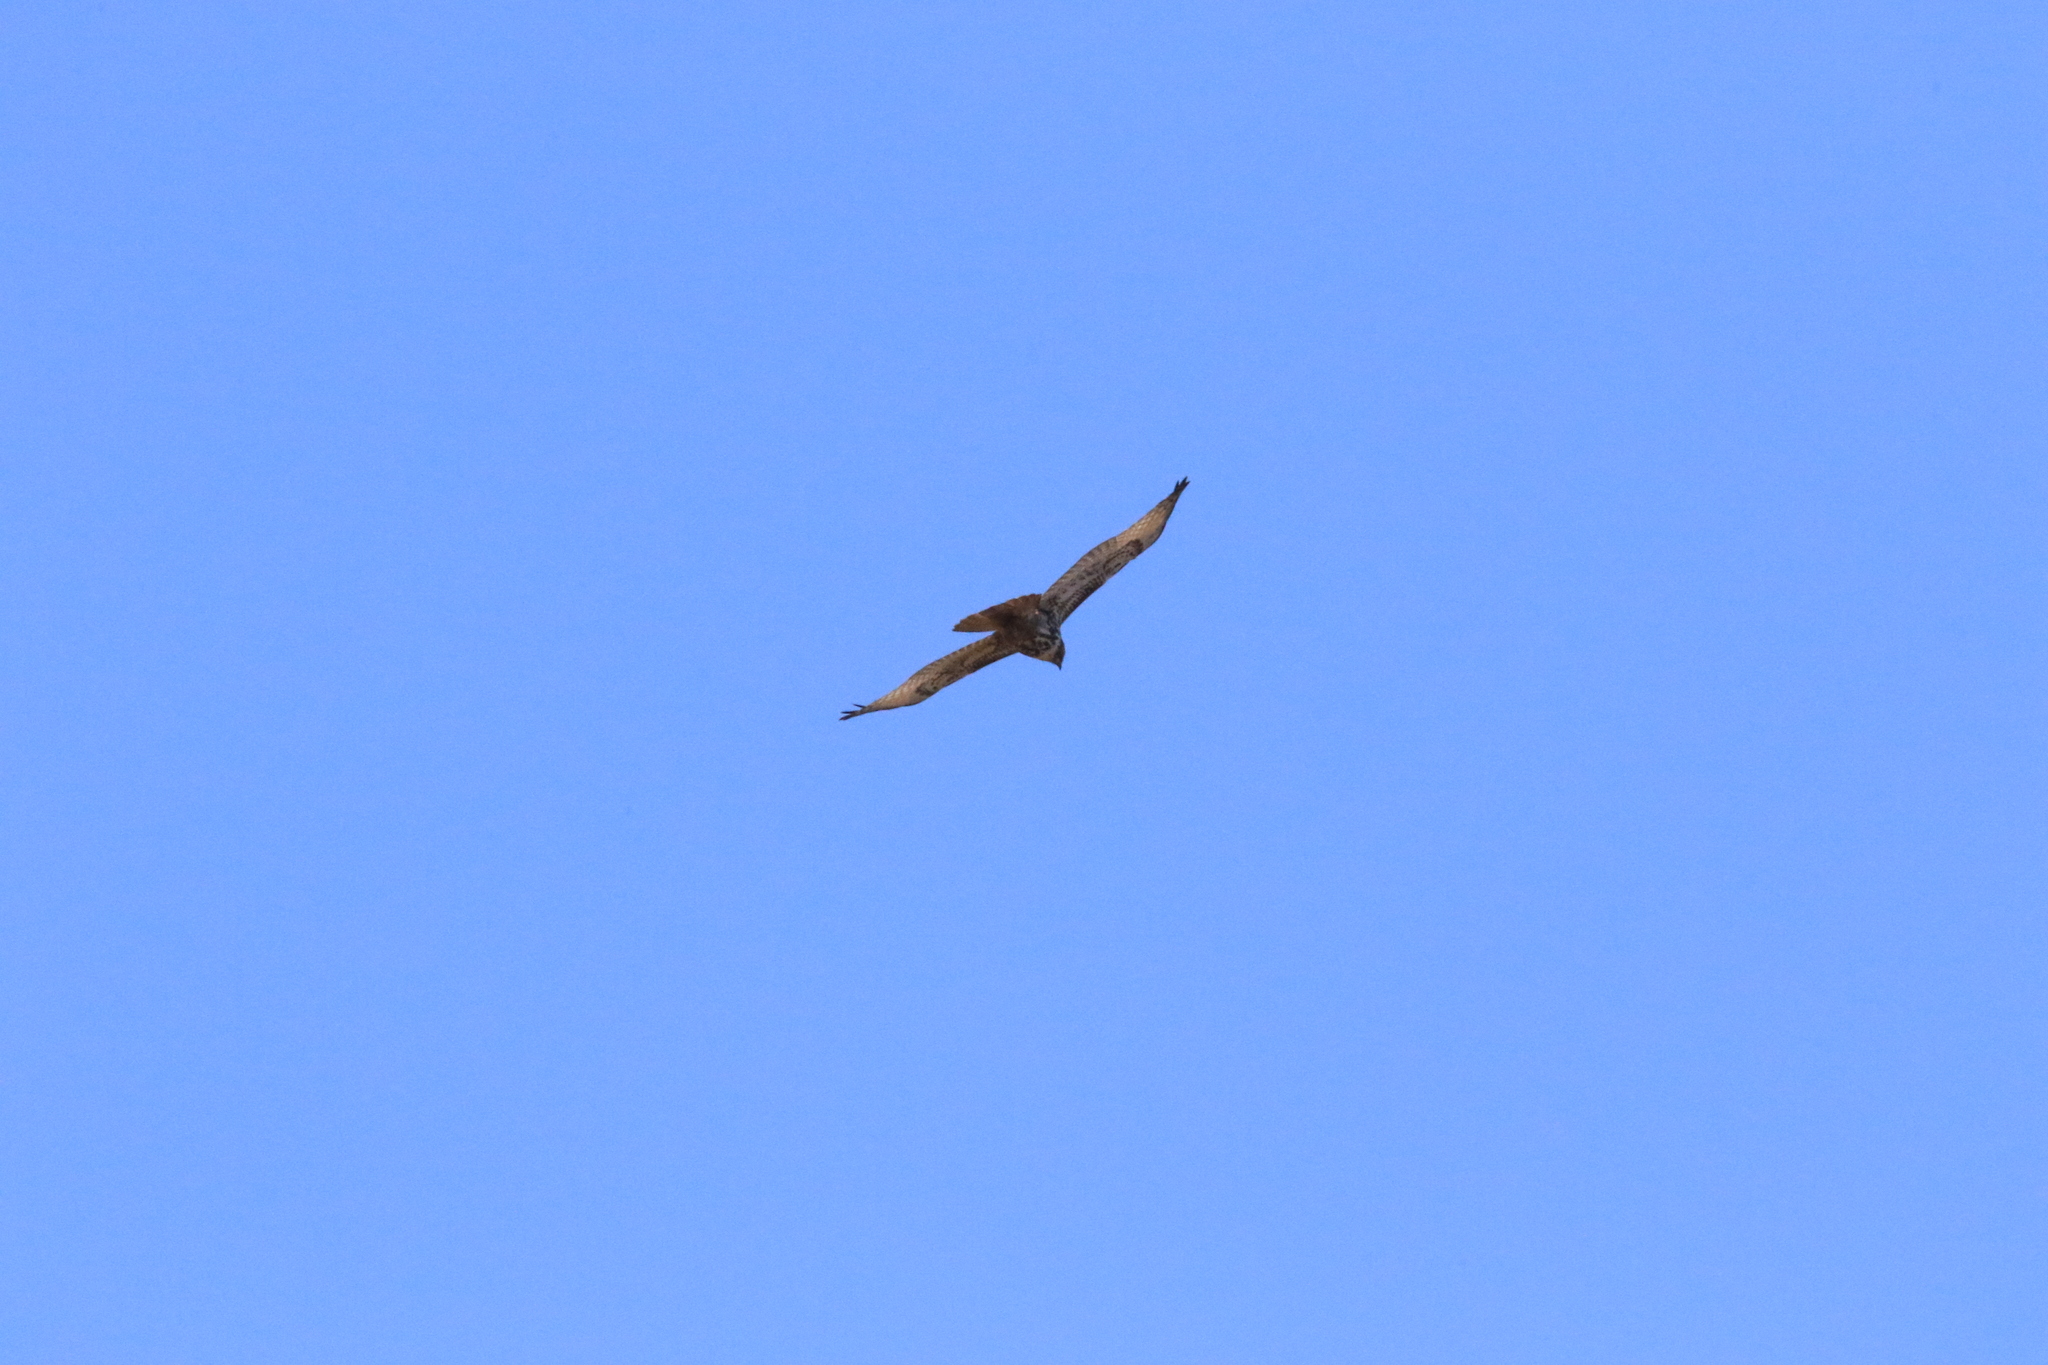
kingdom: Animalia
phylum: Chordata
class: Aves
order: Accipitriformes
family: Accipitridae
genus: Buteo
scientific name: Buteo jamaicensis
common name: Red-tailed hawk
